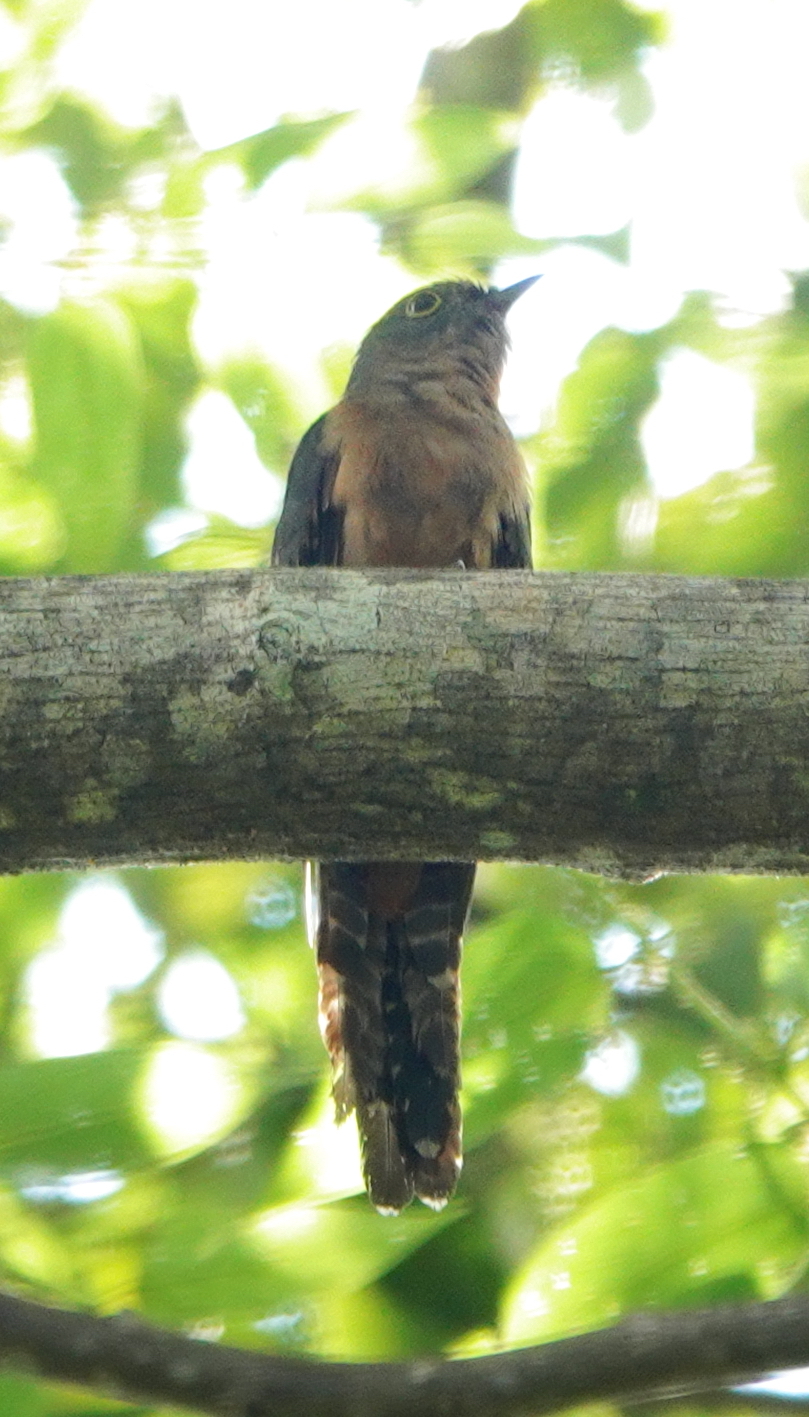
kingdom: Animalia
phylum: Chordata
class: Aves
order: Cuculiformes
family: Cuculidae
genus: Cacomantis
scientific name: Cacomantis aeruginosus
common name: Moluccan cuckoo
